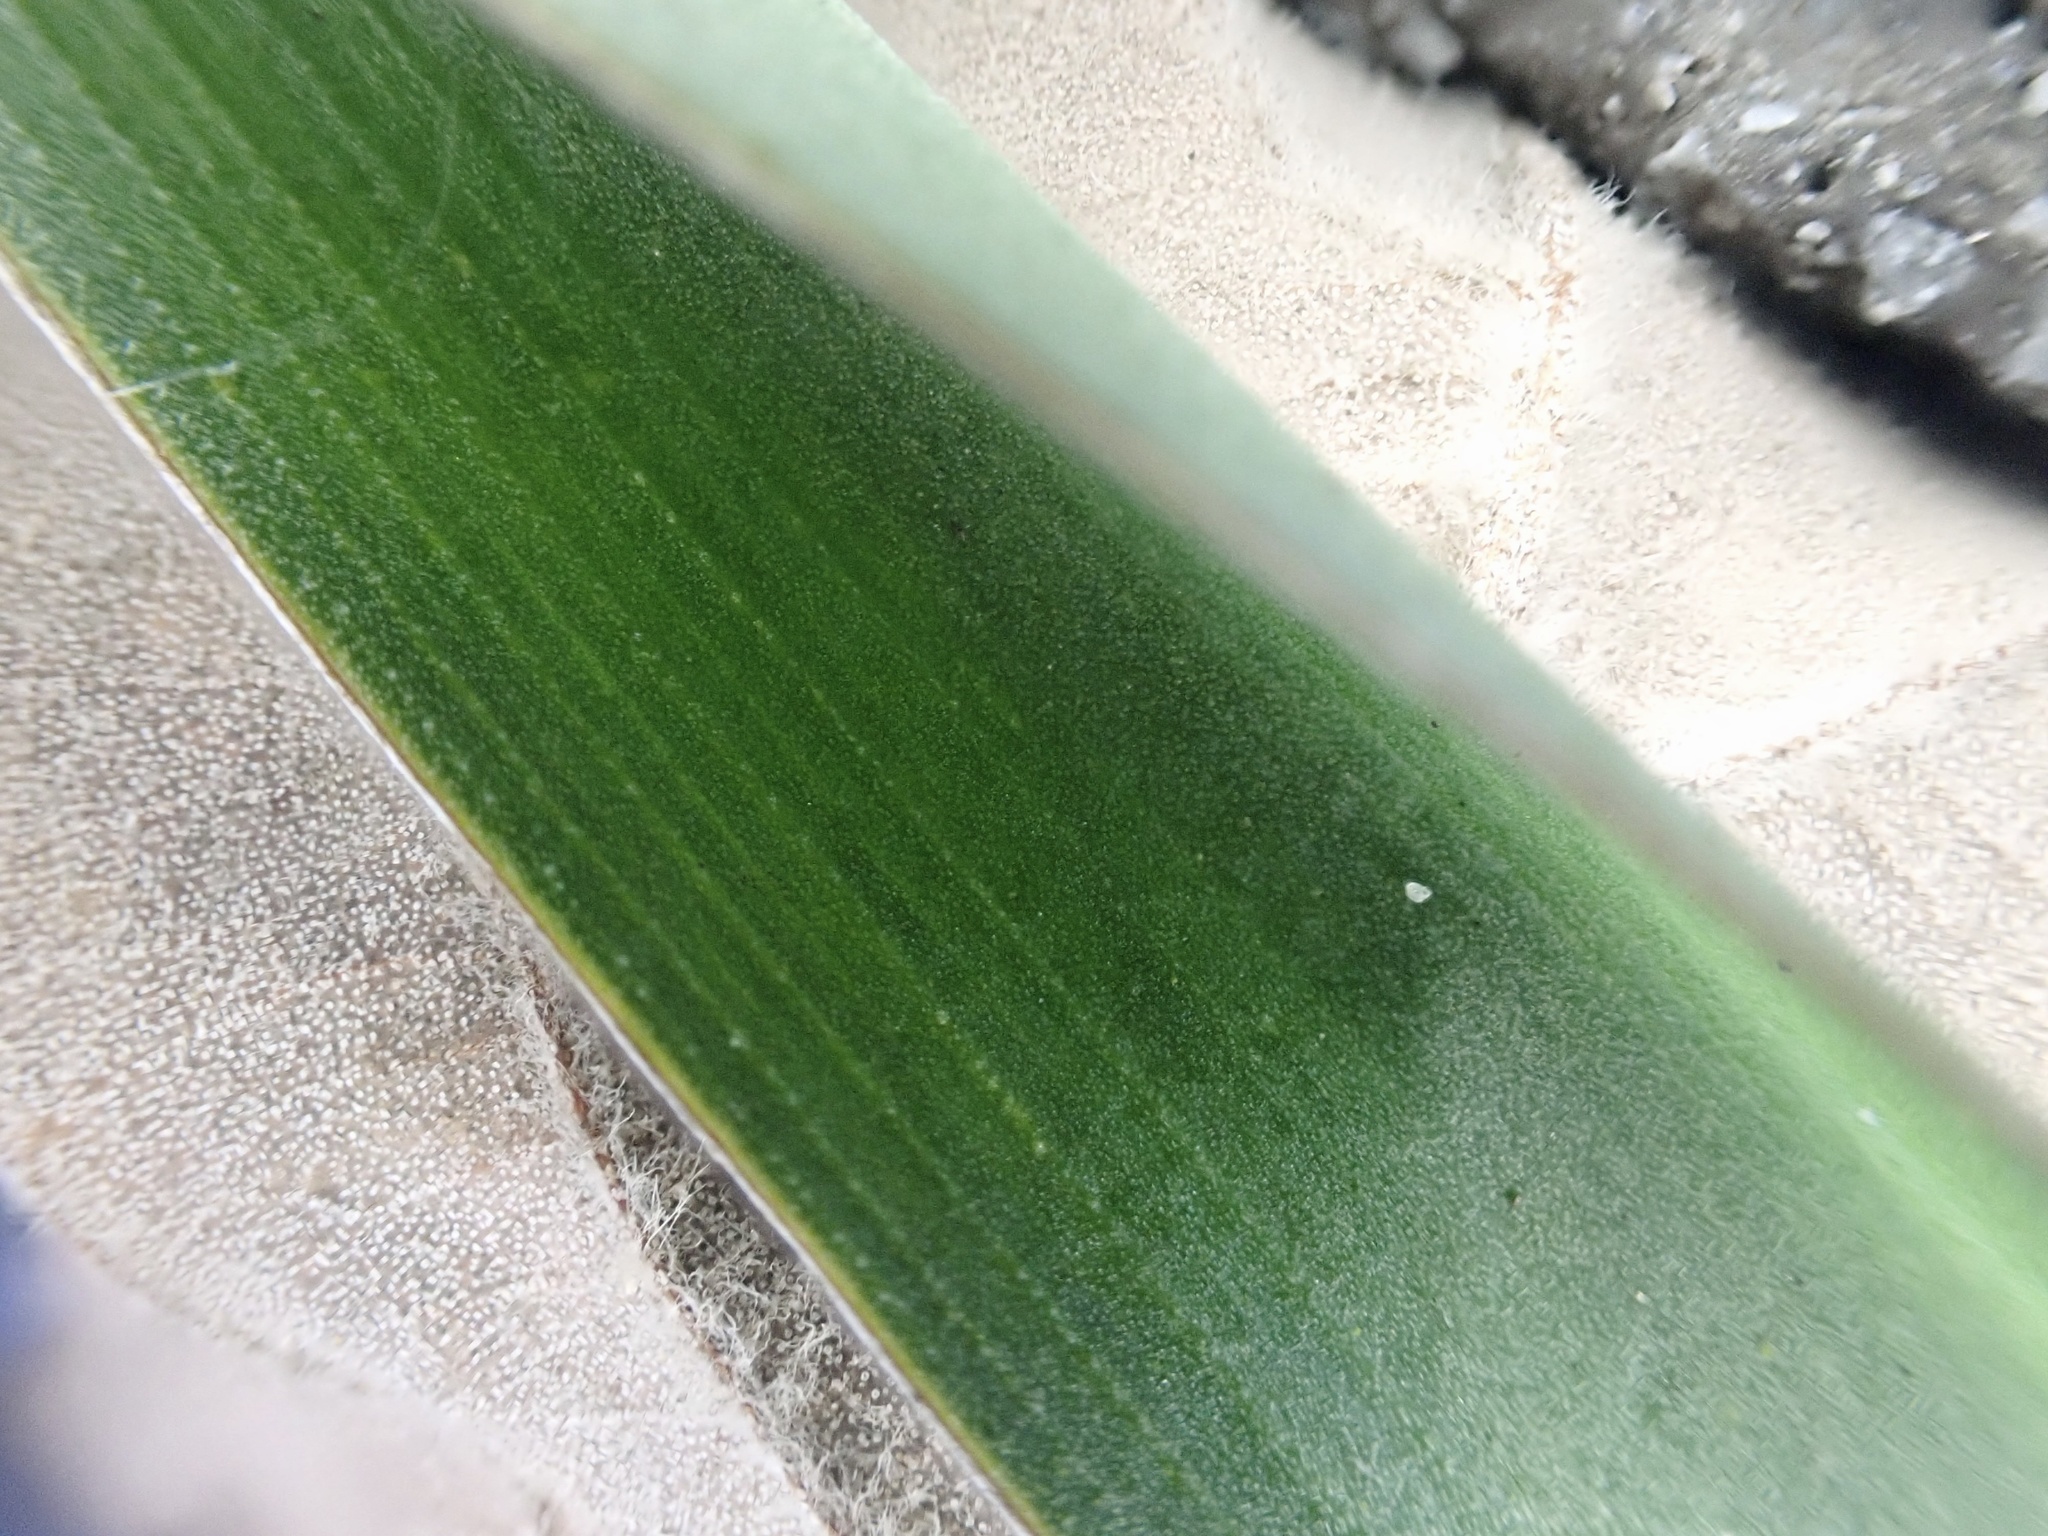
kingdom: Plantae
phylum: Tracheophyta
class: Liliopsida
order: Asparagales
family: Asparagaceae
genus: Yucca
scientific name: Yucca filamentosa
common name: Adam's-needle
